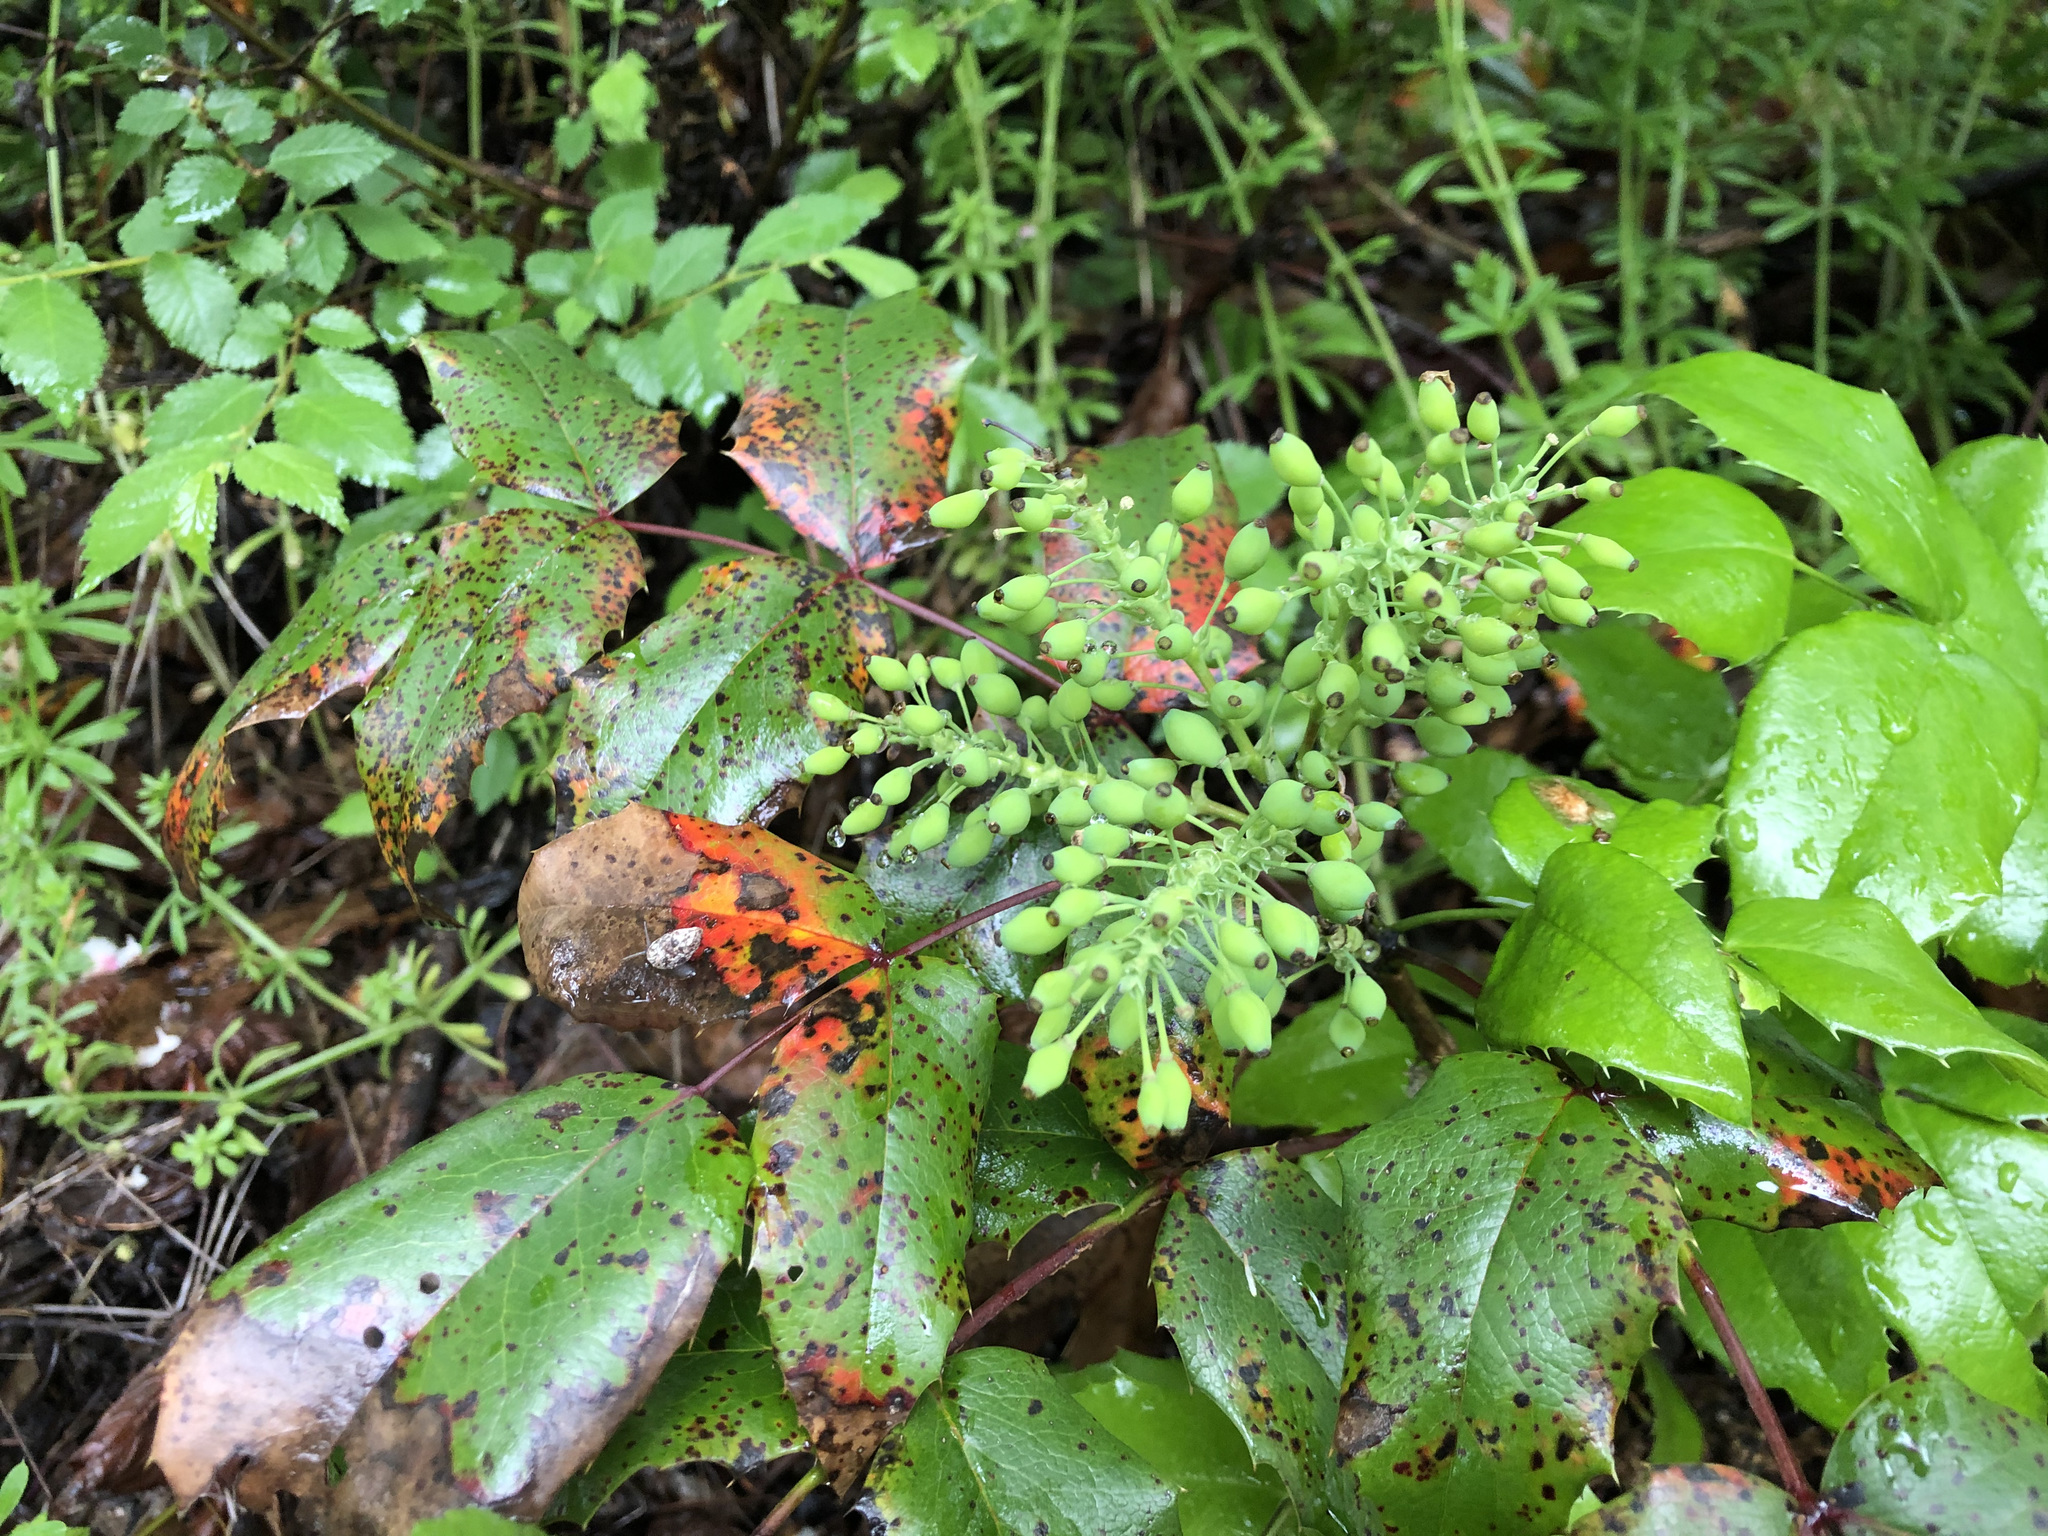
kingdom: Plantae
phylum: Tracheophyta
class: Magnoliopsida
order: Ranunculales
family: Berberidaceae
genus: Mahonia
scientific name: Mahonia aquifolium
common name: Oregon-grape
